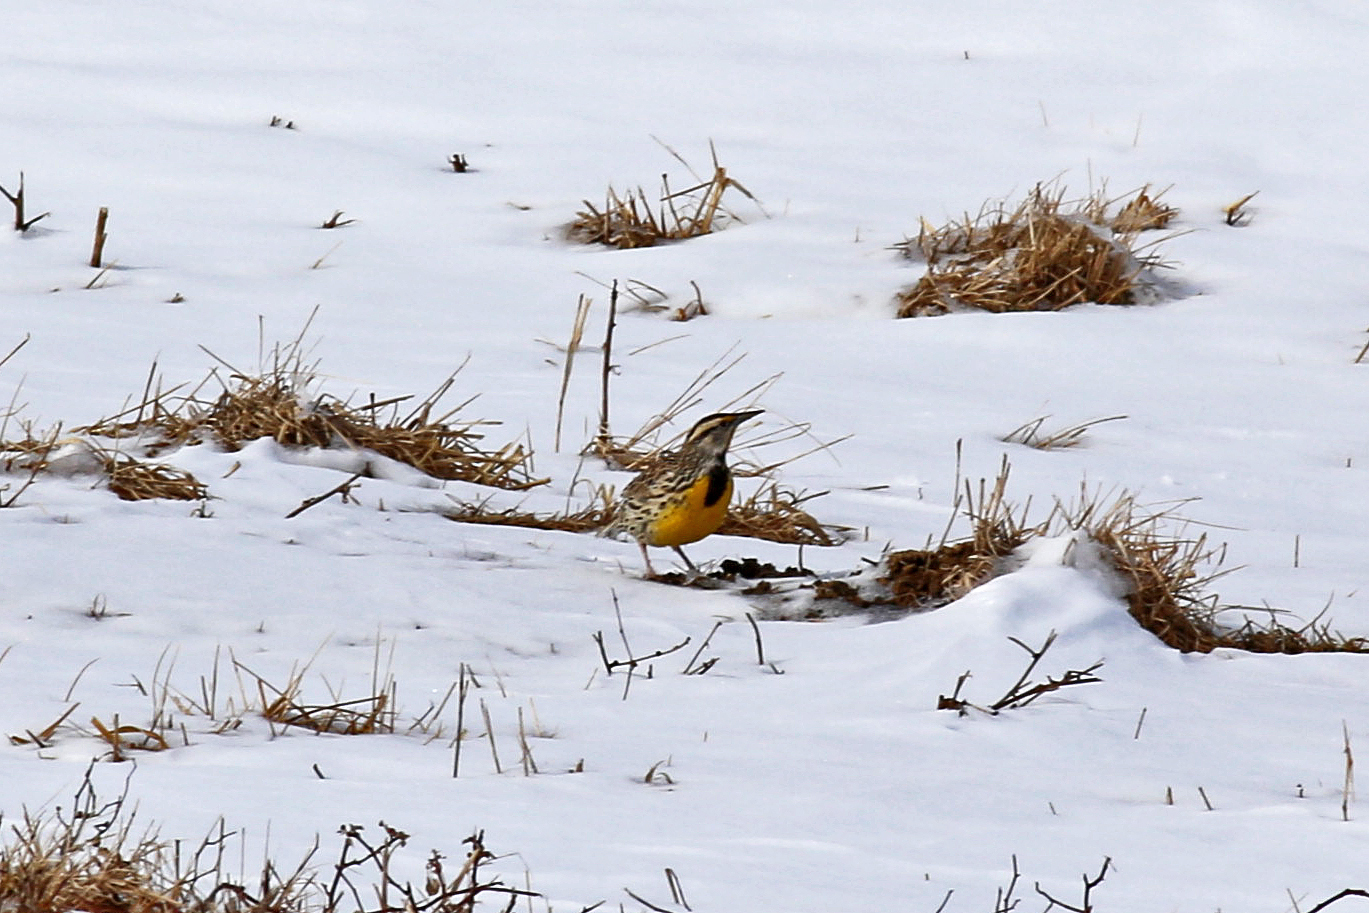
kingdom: Animalia
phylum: Chordata
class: Aves
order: Passeriformes
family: Icteridae
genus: Sturnella
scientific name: Sturnella magna
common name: Eastern meadowlark
